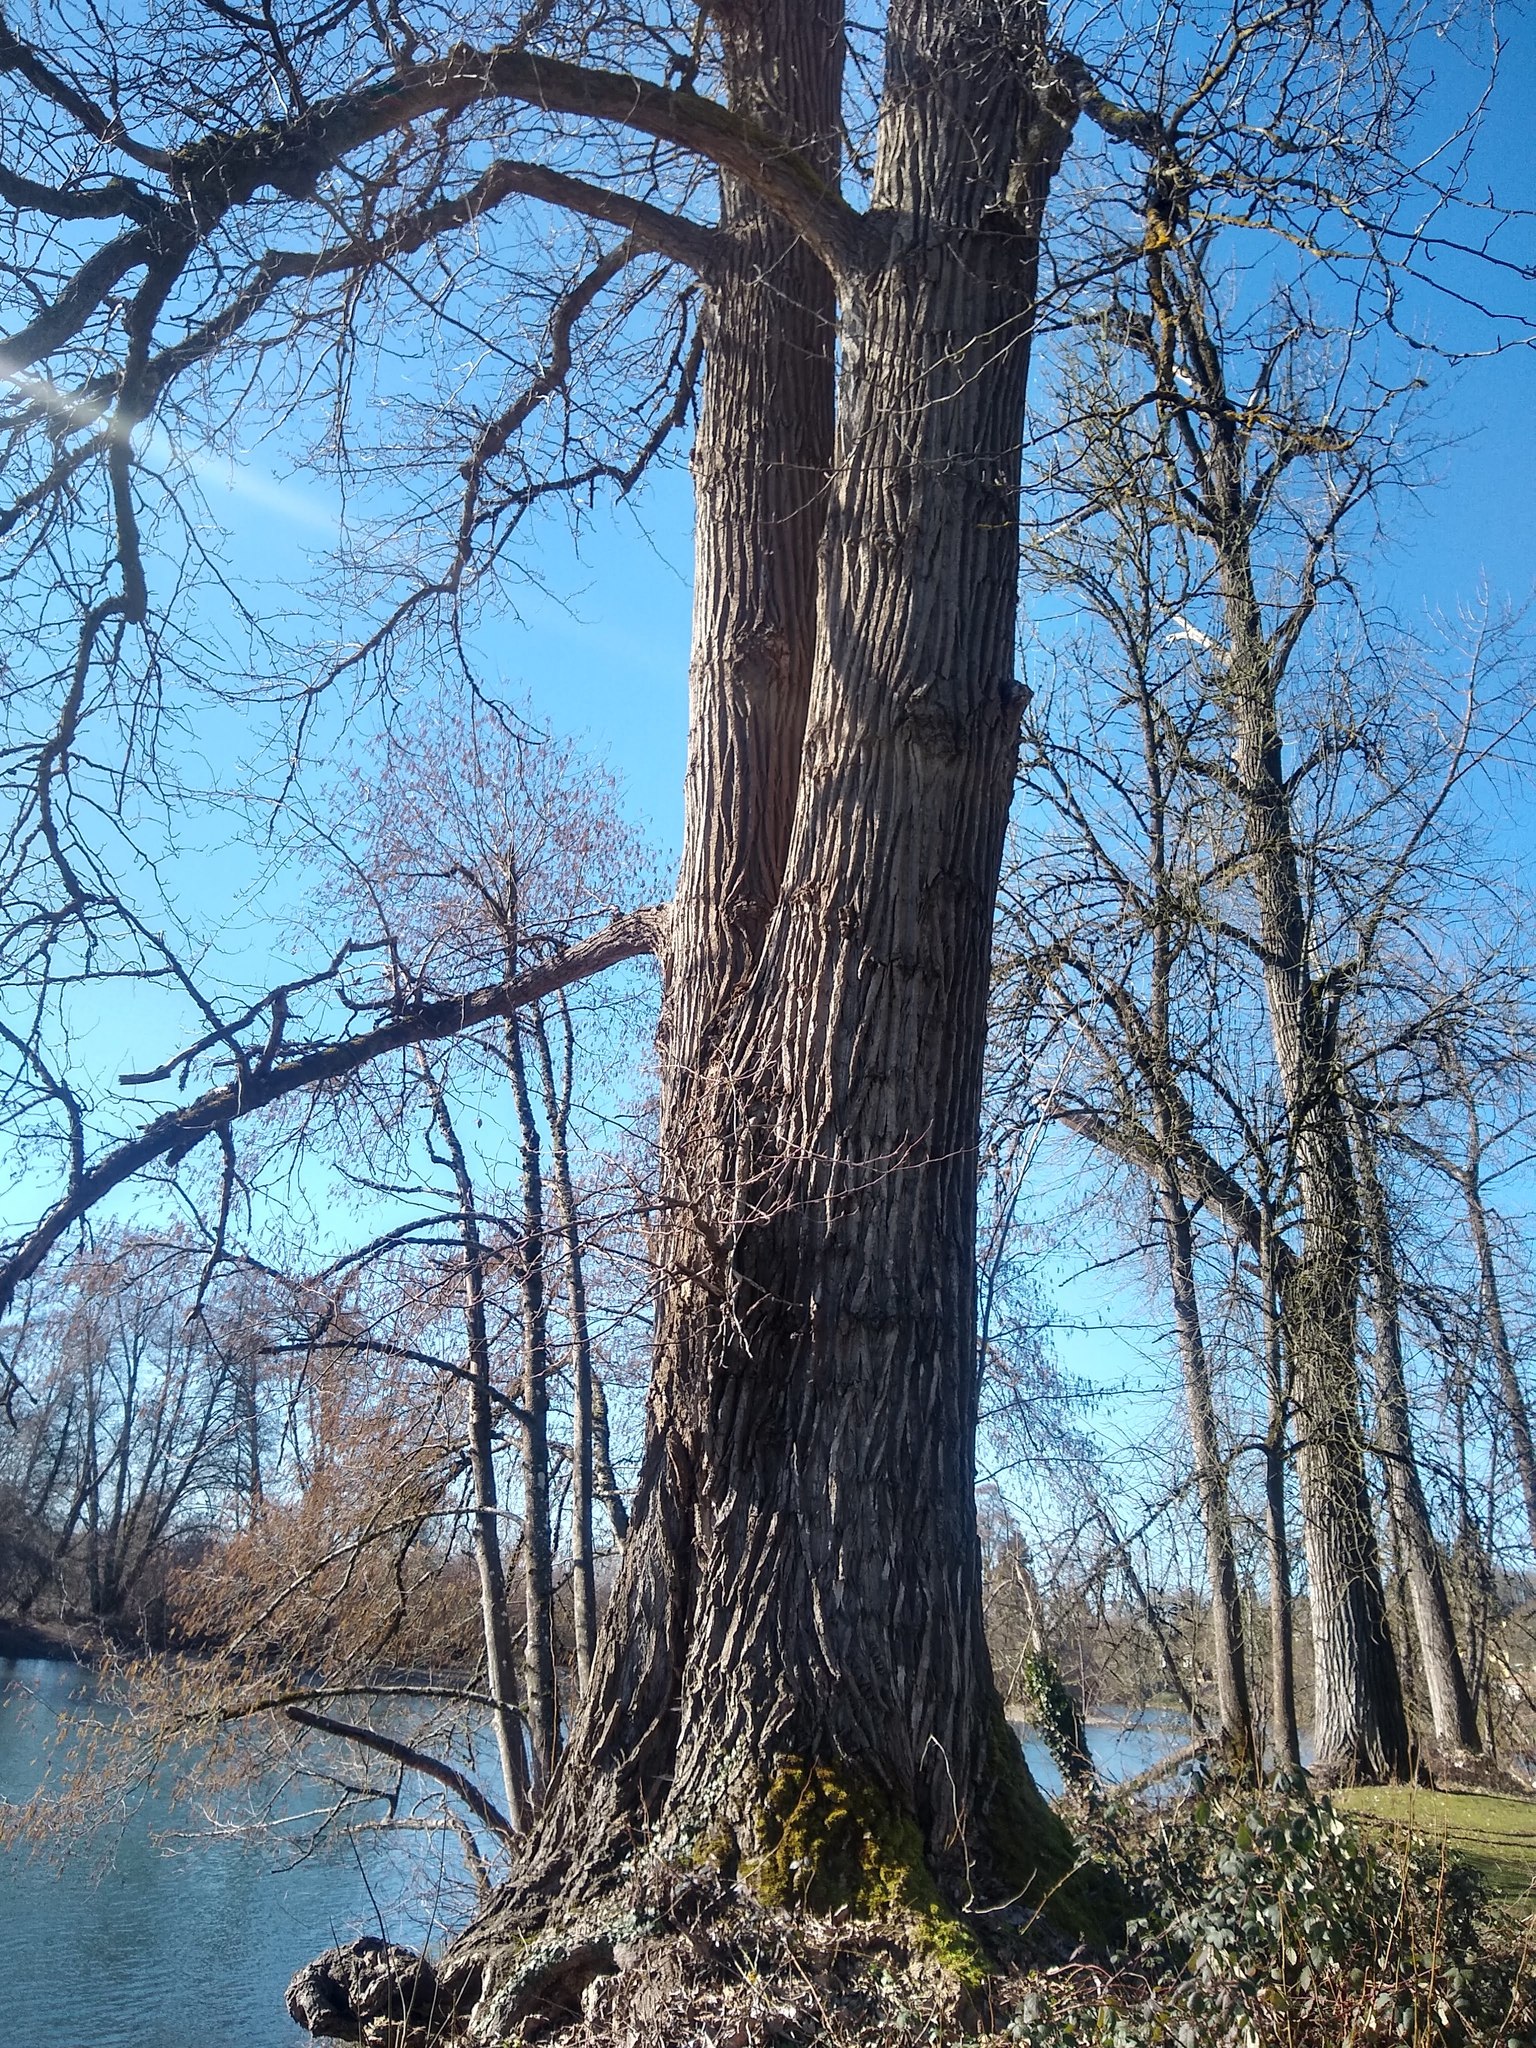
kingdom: Plantae
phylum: Tracheophyta
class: Magnoliopsida
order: Malpighiales
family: Salicaceae
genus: Populus
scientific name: Populus trichocarpa
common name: Black cottonwood
